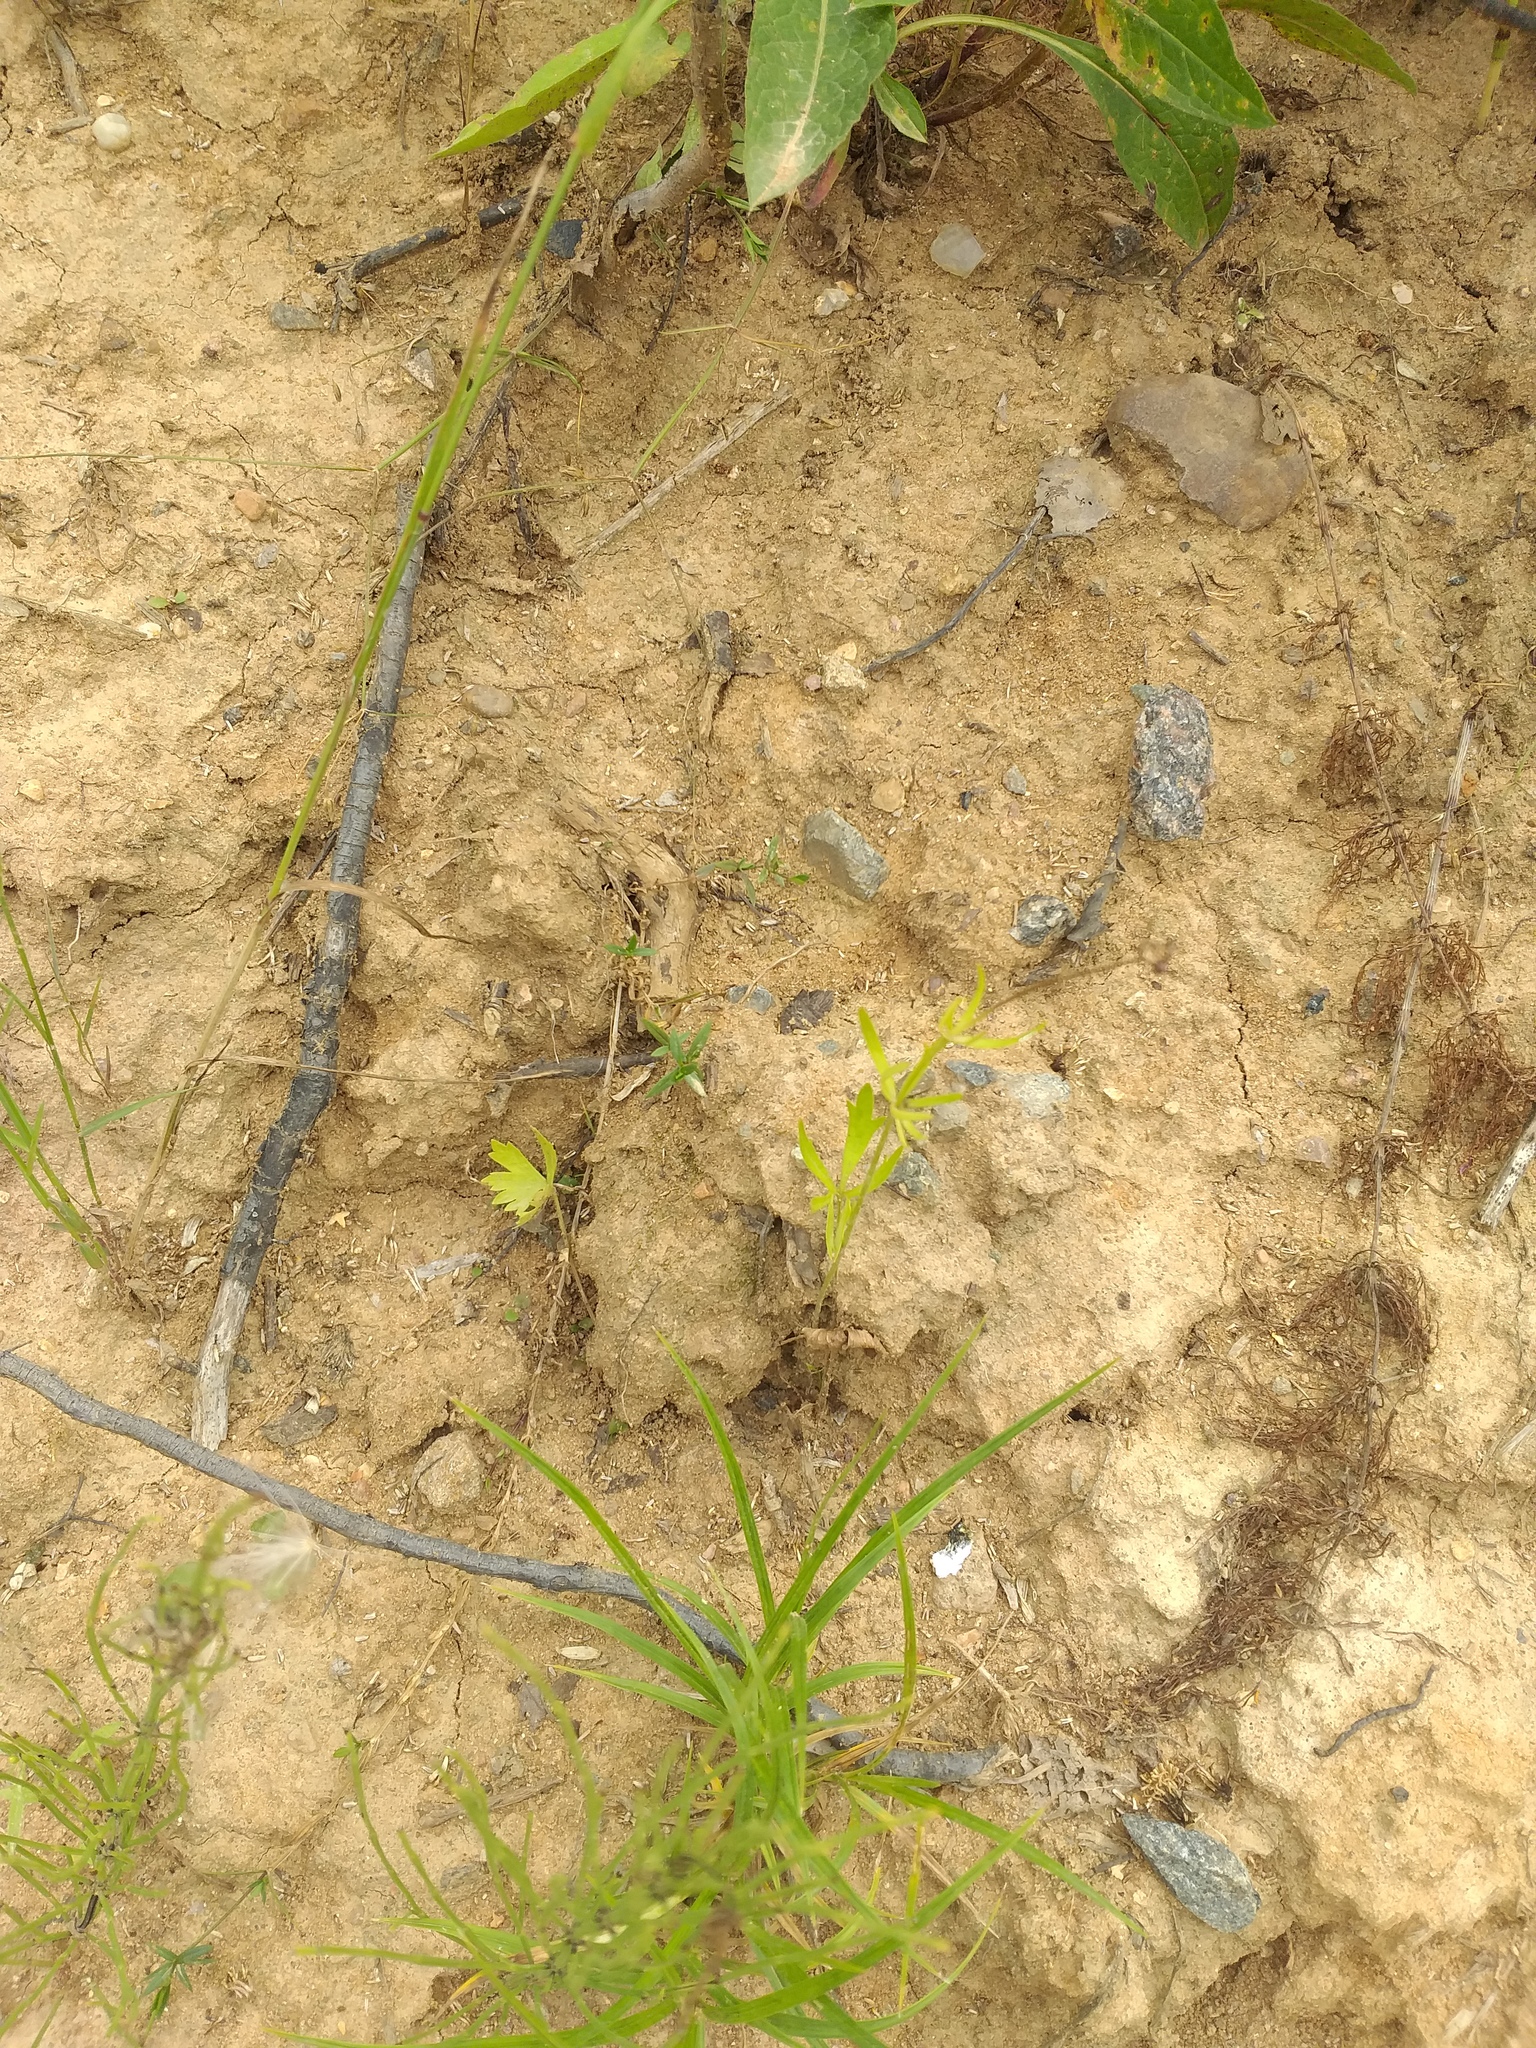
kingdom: Plantae
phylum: Tracheophyta
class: Magnoliopsida
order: Ranunculales
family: Ranunculaceae
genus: Ranunculus
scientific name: Ranunculus auricomus
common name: Goldilocks buttercup
